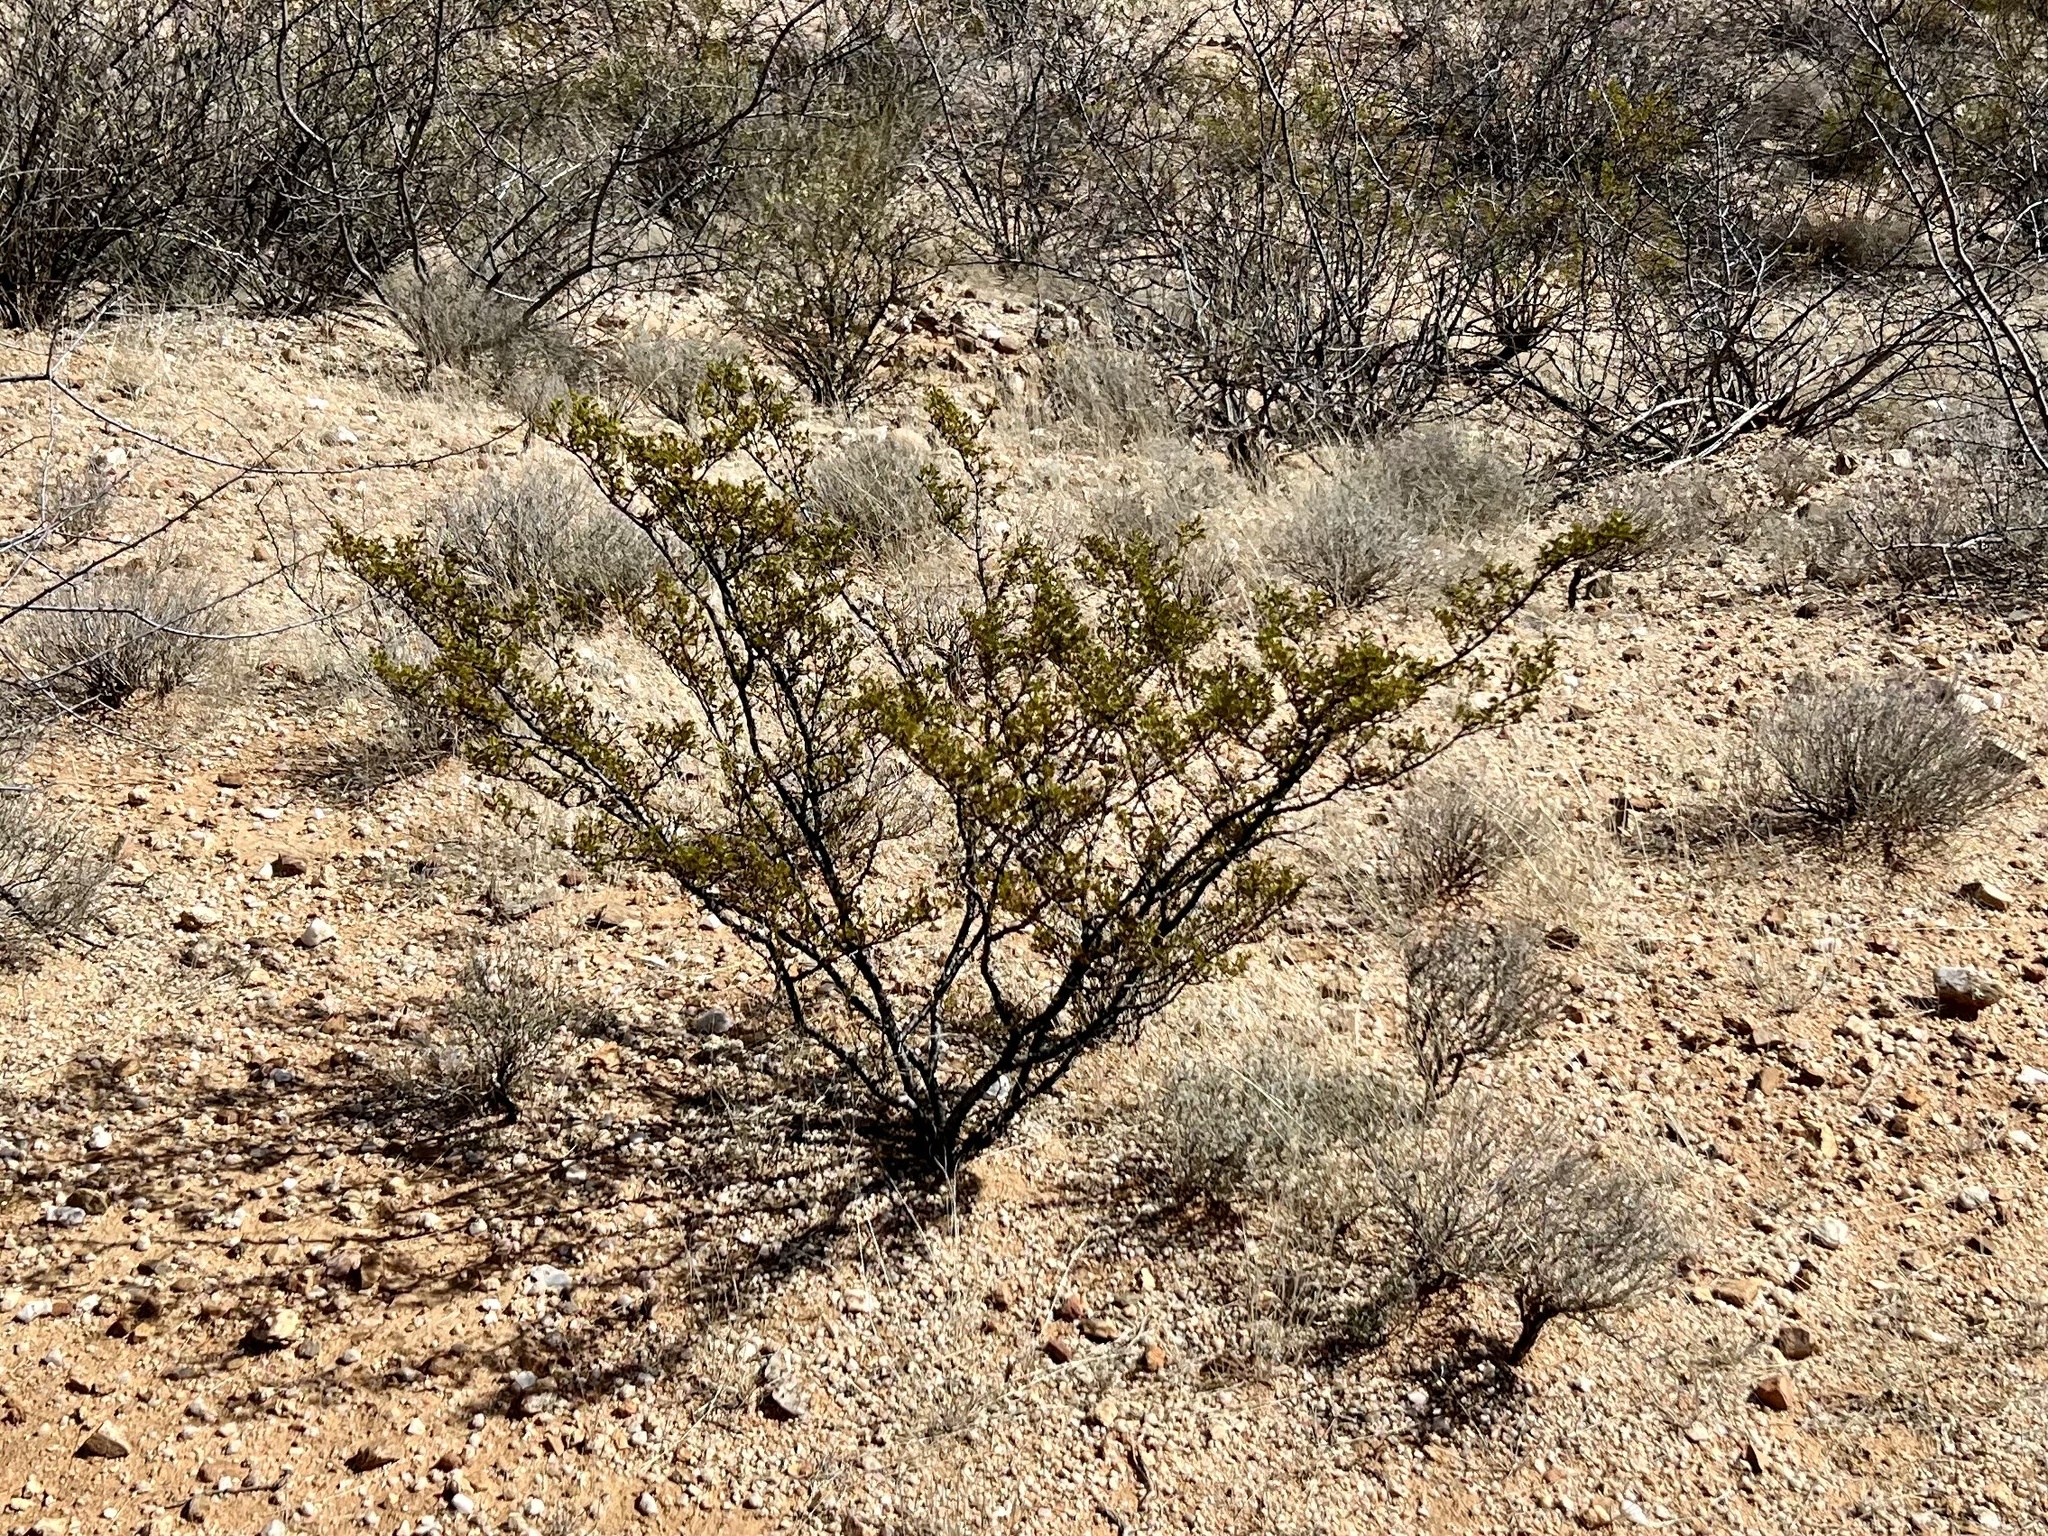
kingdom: Plantae
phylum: Tracheophyta
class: Magnoliopsida
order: Zygophyllales
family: Zygophyllaceae
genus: Larrea
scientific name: Larrea tridentata
